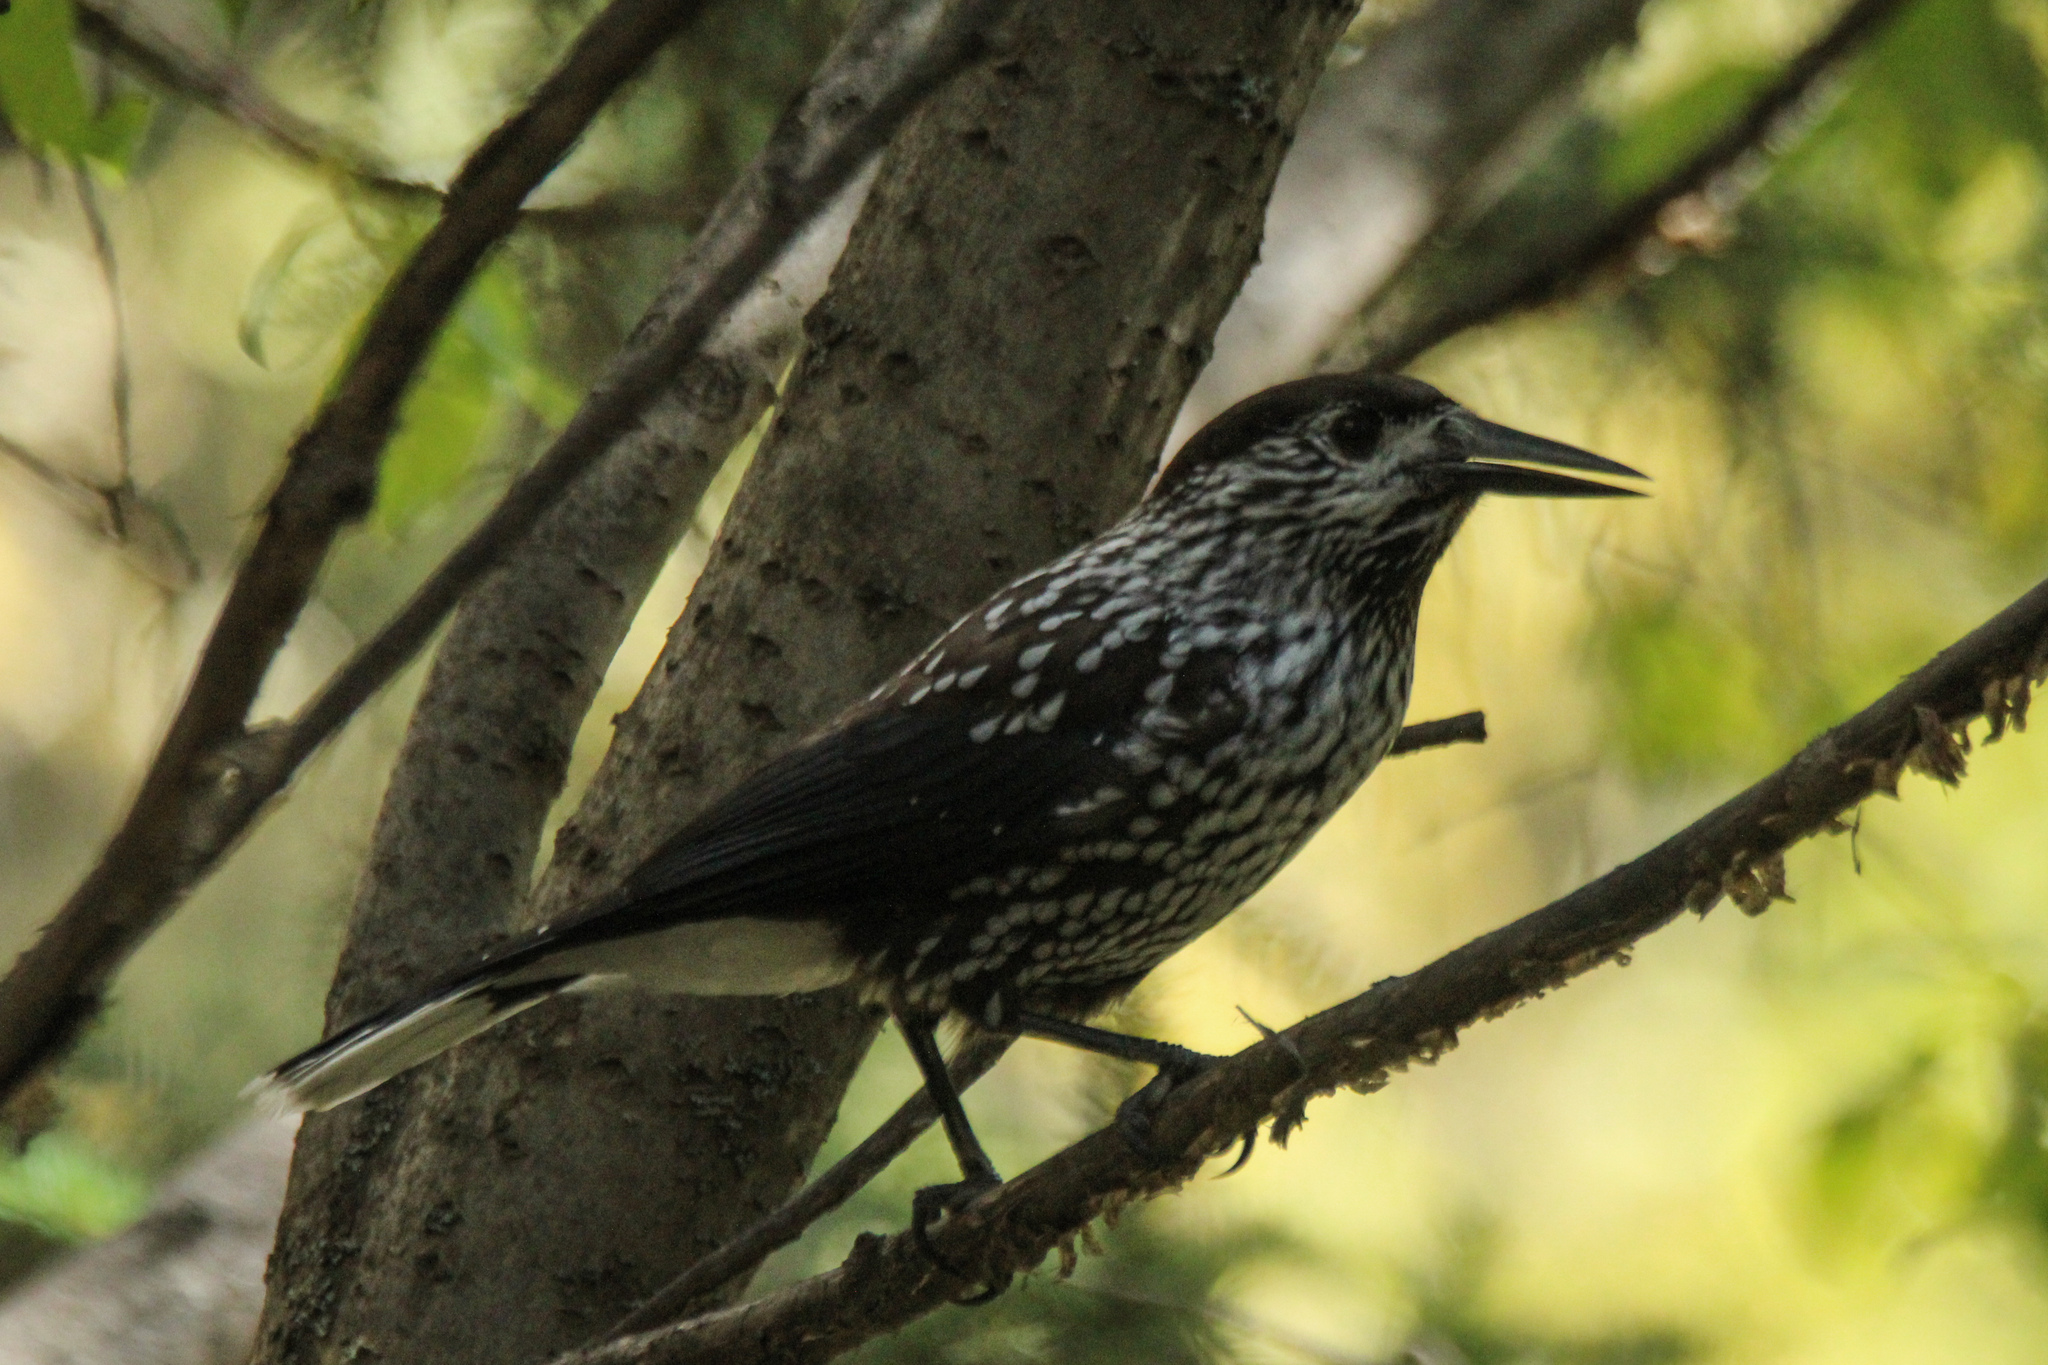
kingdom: Animalia
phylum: Chordata
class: Aves
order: Passeriformes
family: Corvidae
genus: Nucifraga
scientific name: Nucifraga caryocatactes
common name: Spotted nutcracker
